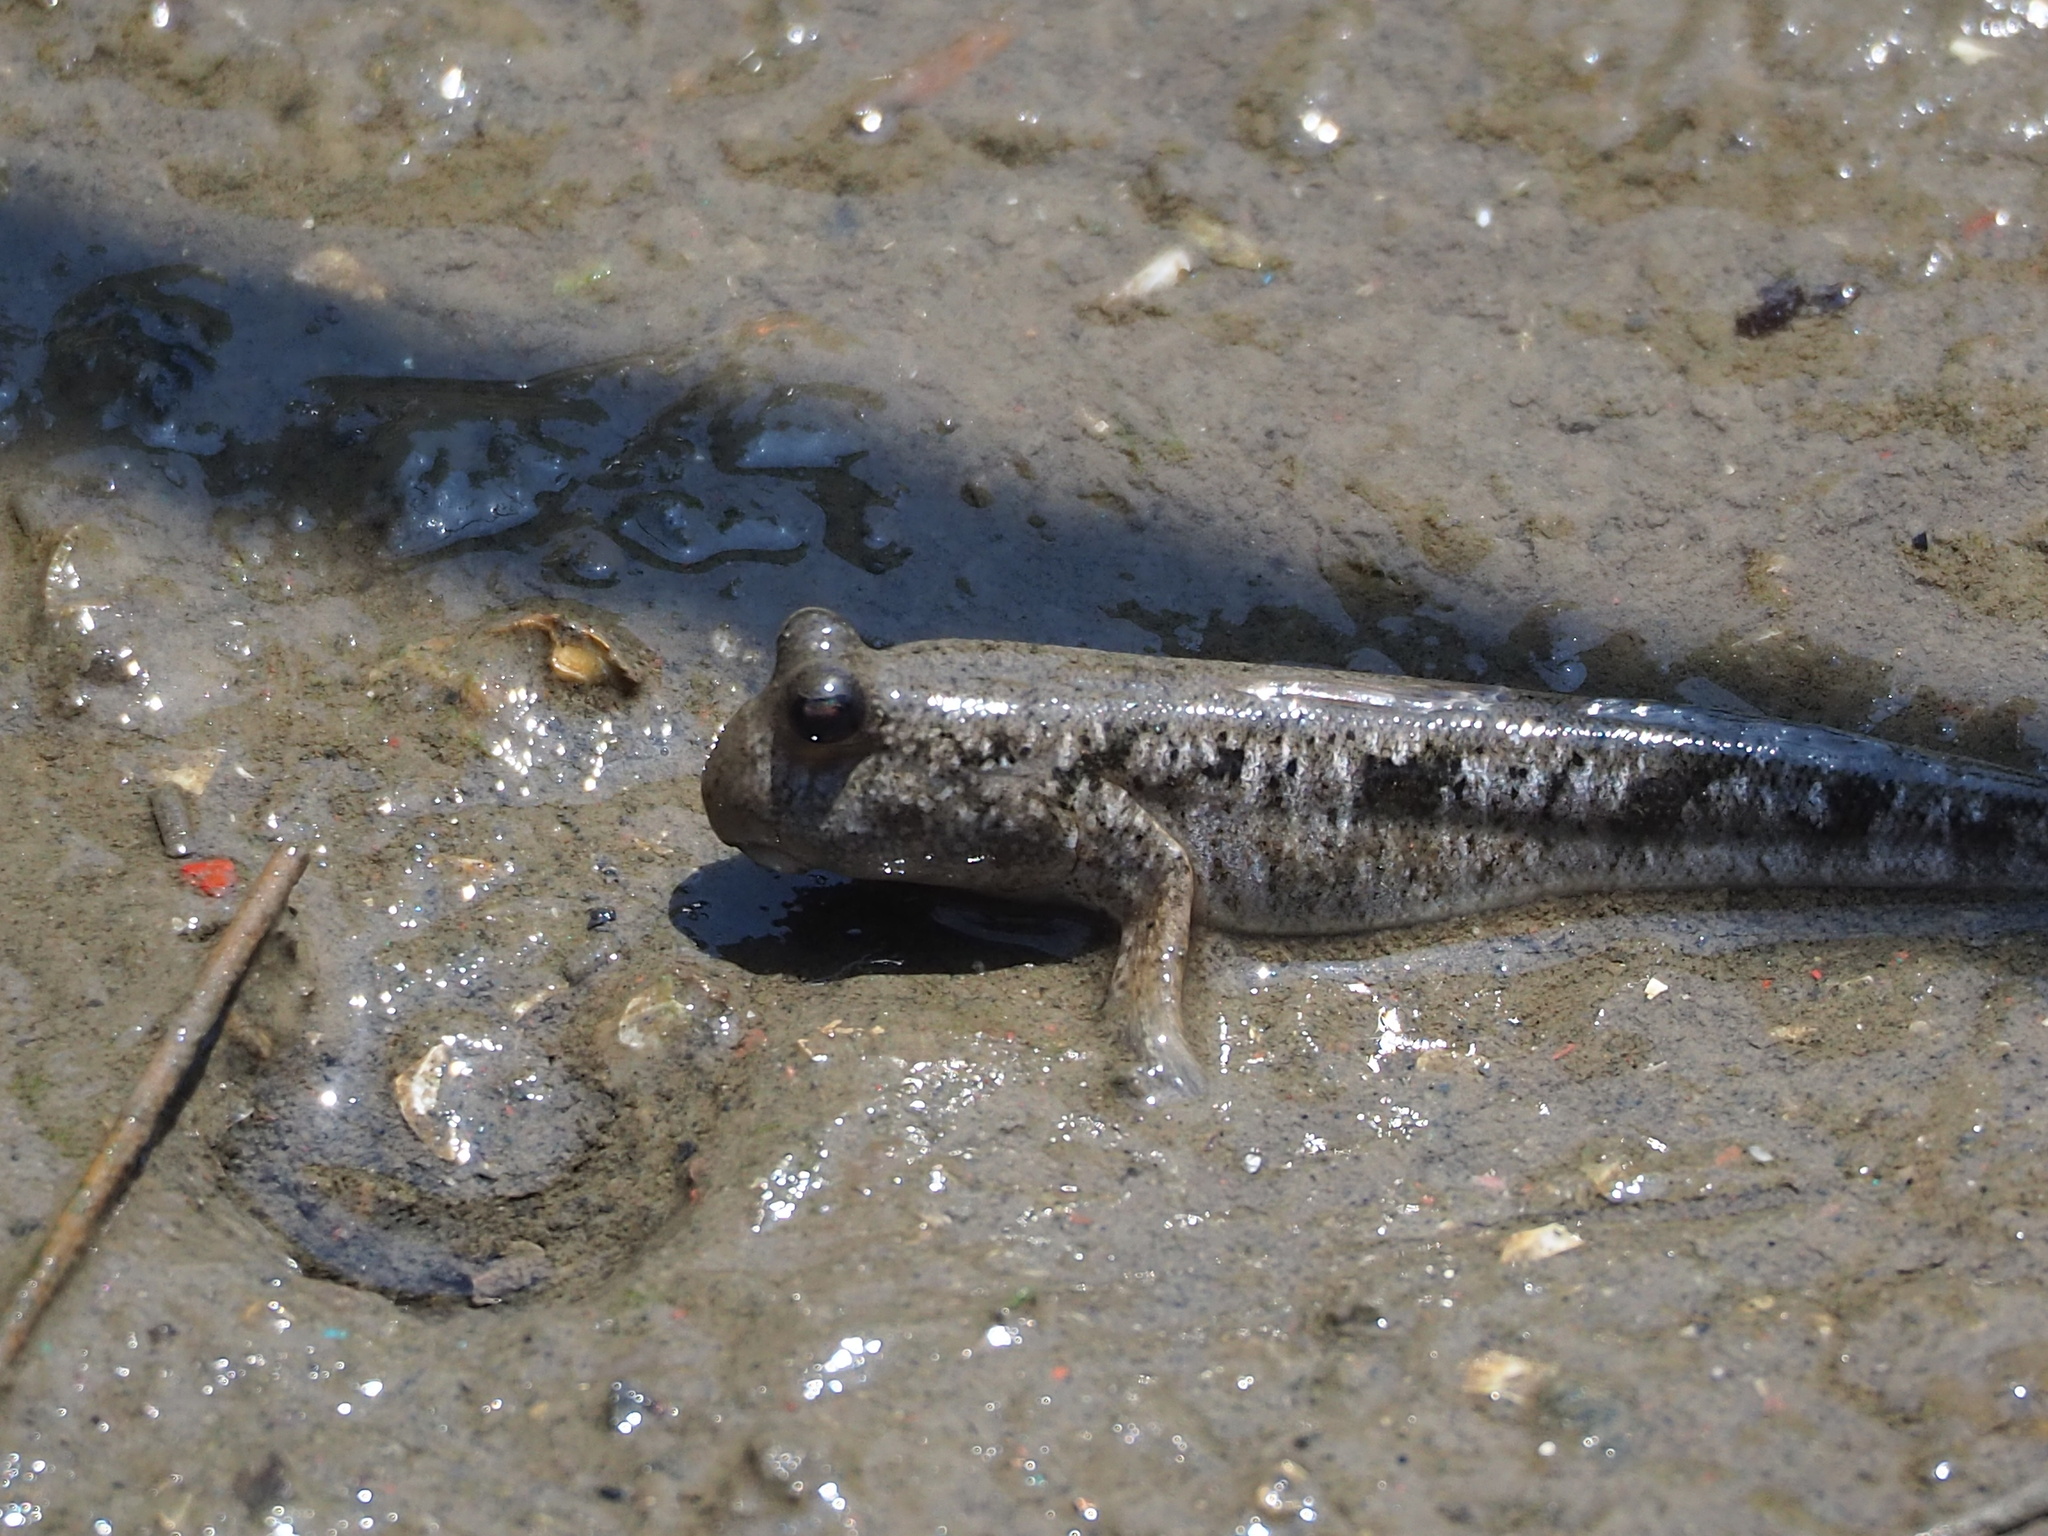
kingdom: Animalia
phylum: Chordata
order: Perciformes
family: Gobiidae
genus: Periophthalmus
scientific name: Periophthalmus modestus
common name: Black goby
